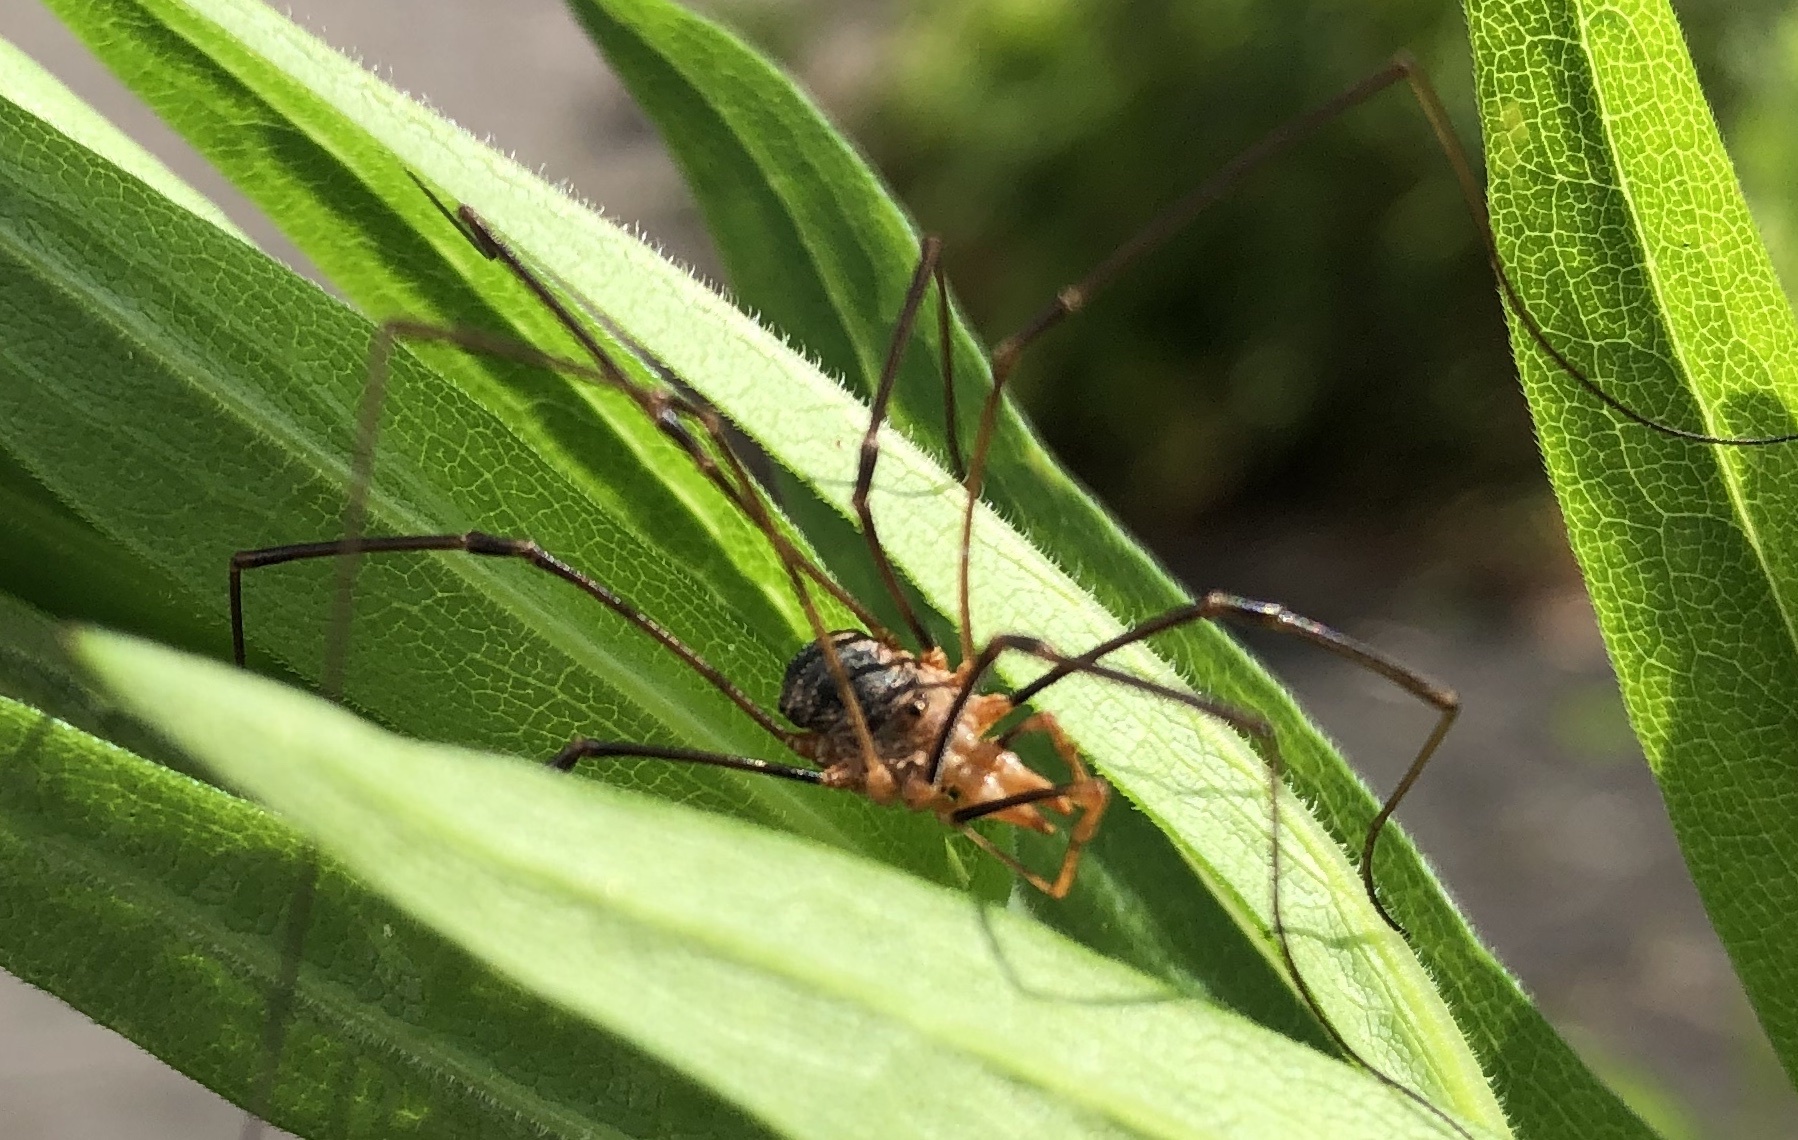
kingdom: Animalia
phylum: Arthropoda
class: Arachnida
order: Opiliones
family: Phalangiidae
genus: Phalangium
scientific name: Phalangium opilio
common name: Daddy longleg
